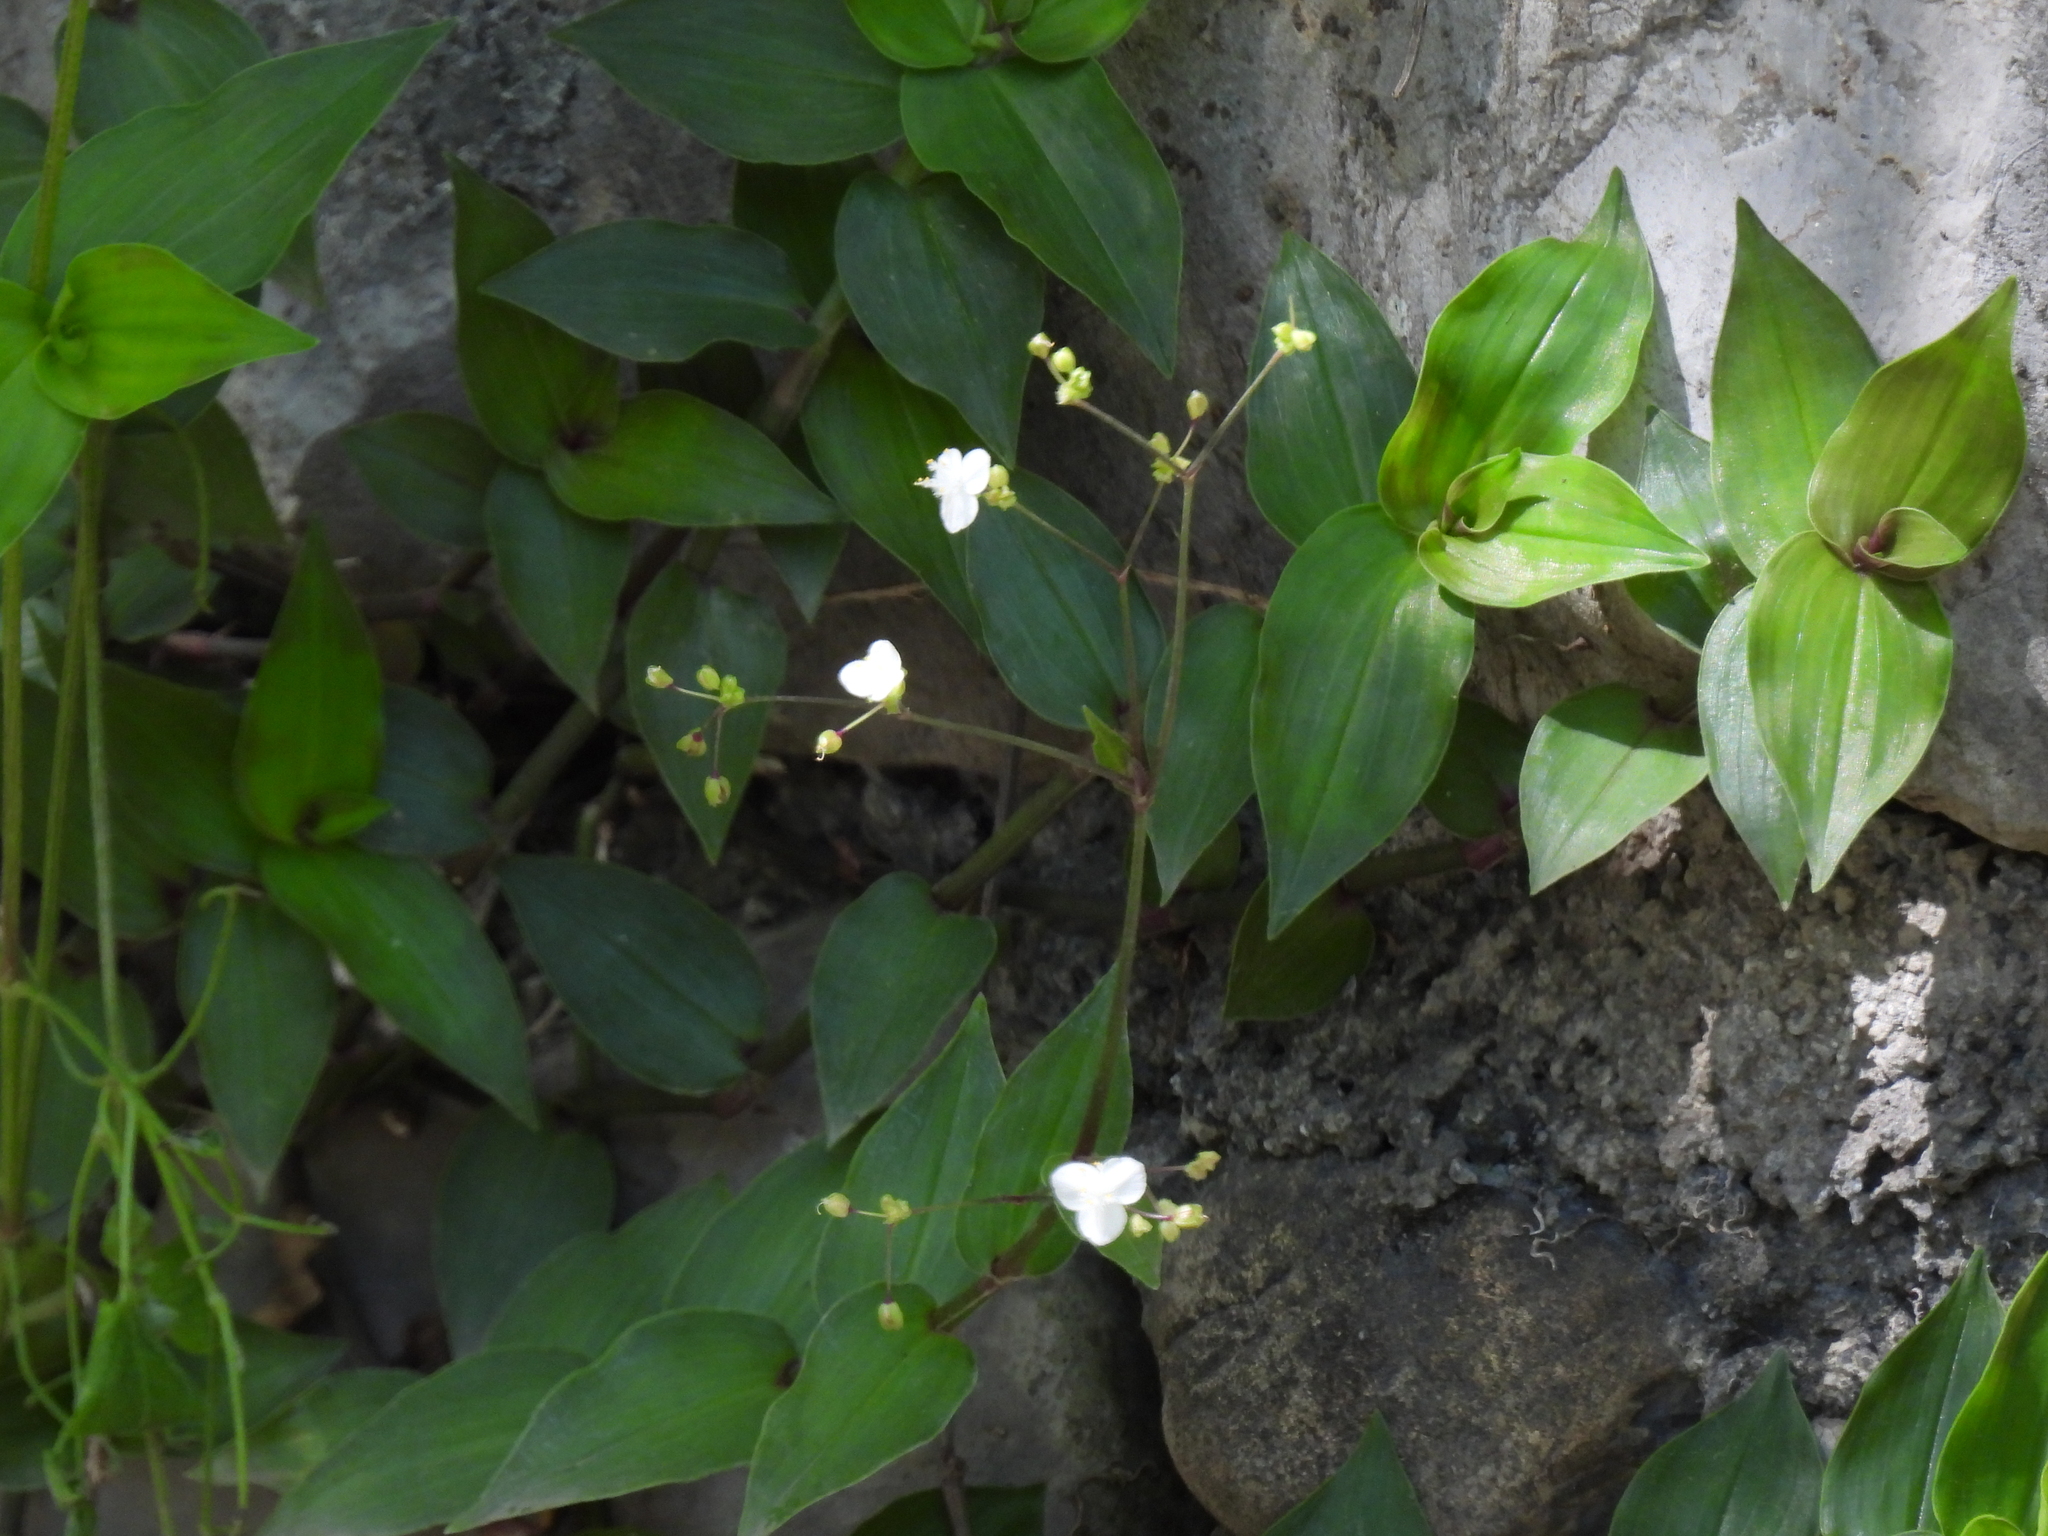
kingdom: Plantae
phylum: Tracheophyta
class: Liliopsida
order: Commelinales
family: Commelinaceae
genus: Gibasis
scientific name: Gibasis pellucida
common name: Dotted bridalveil
